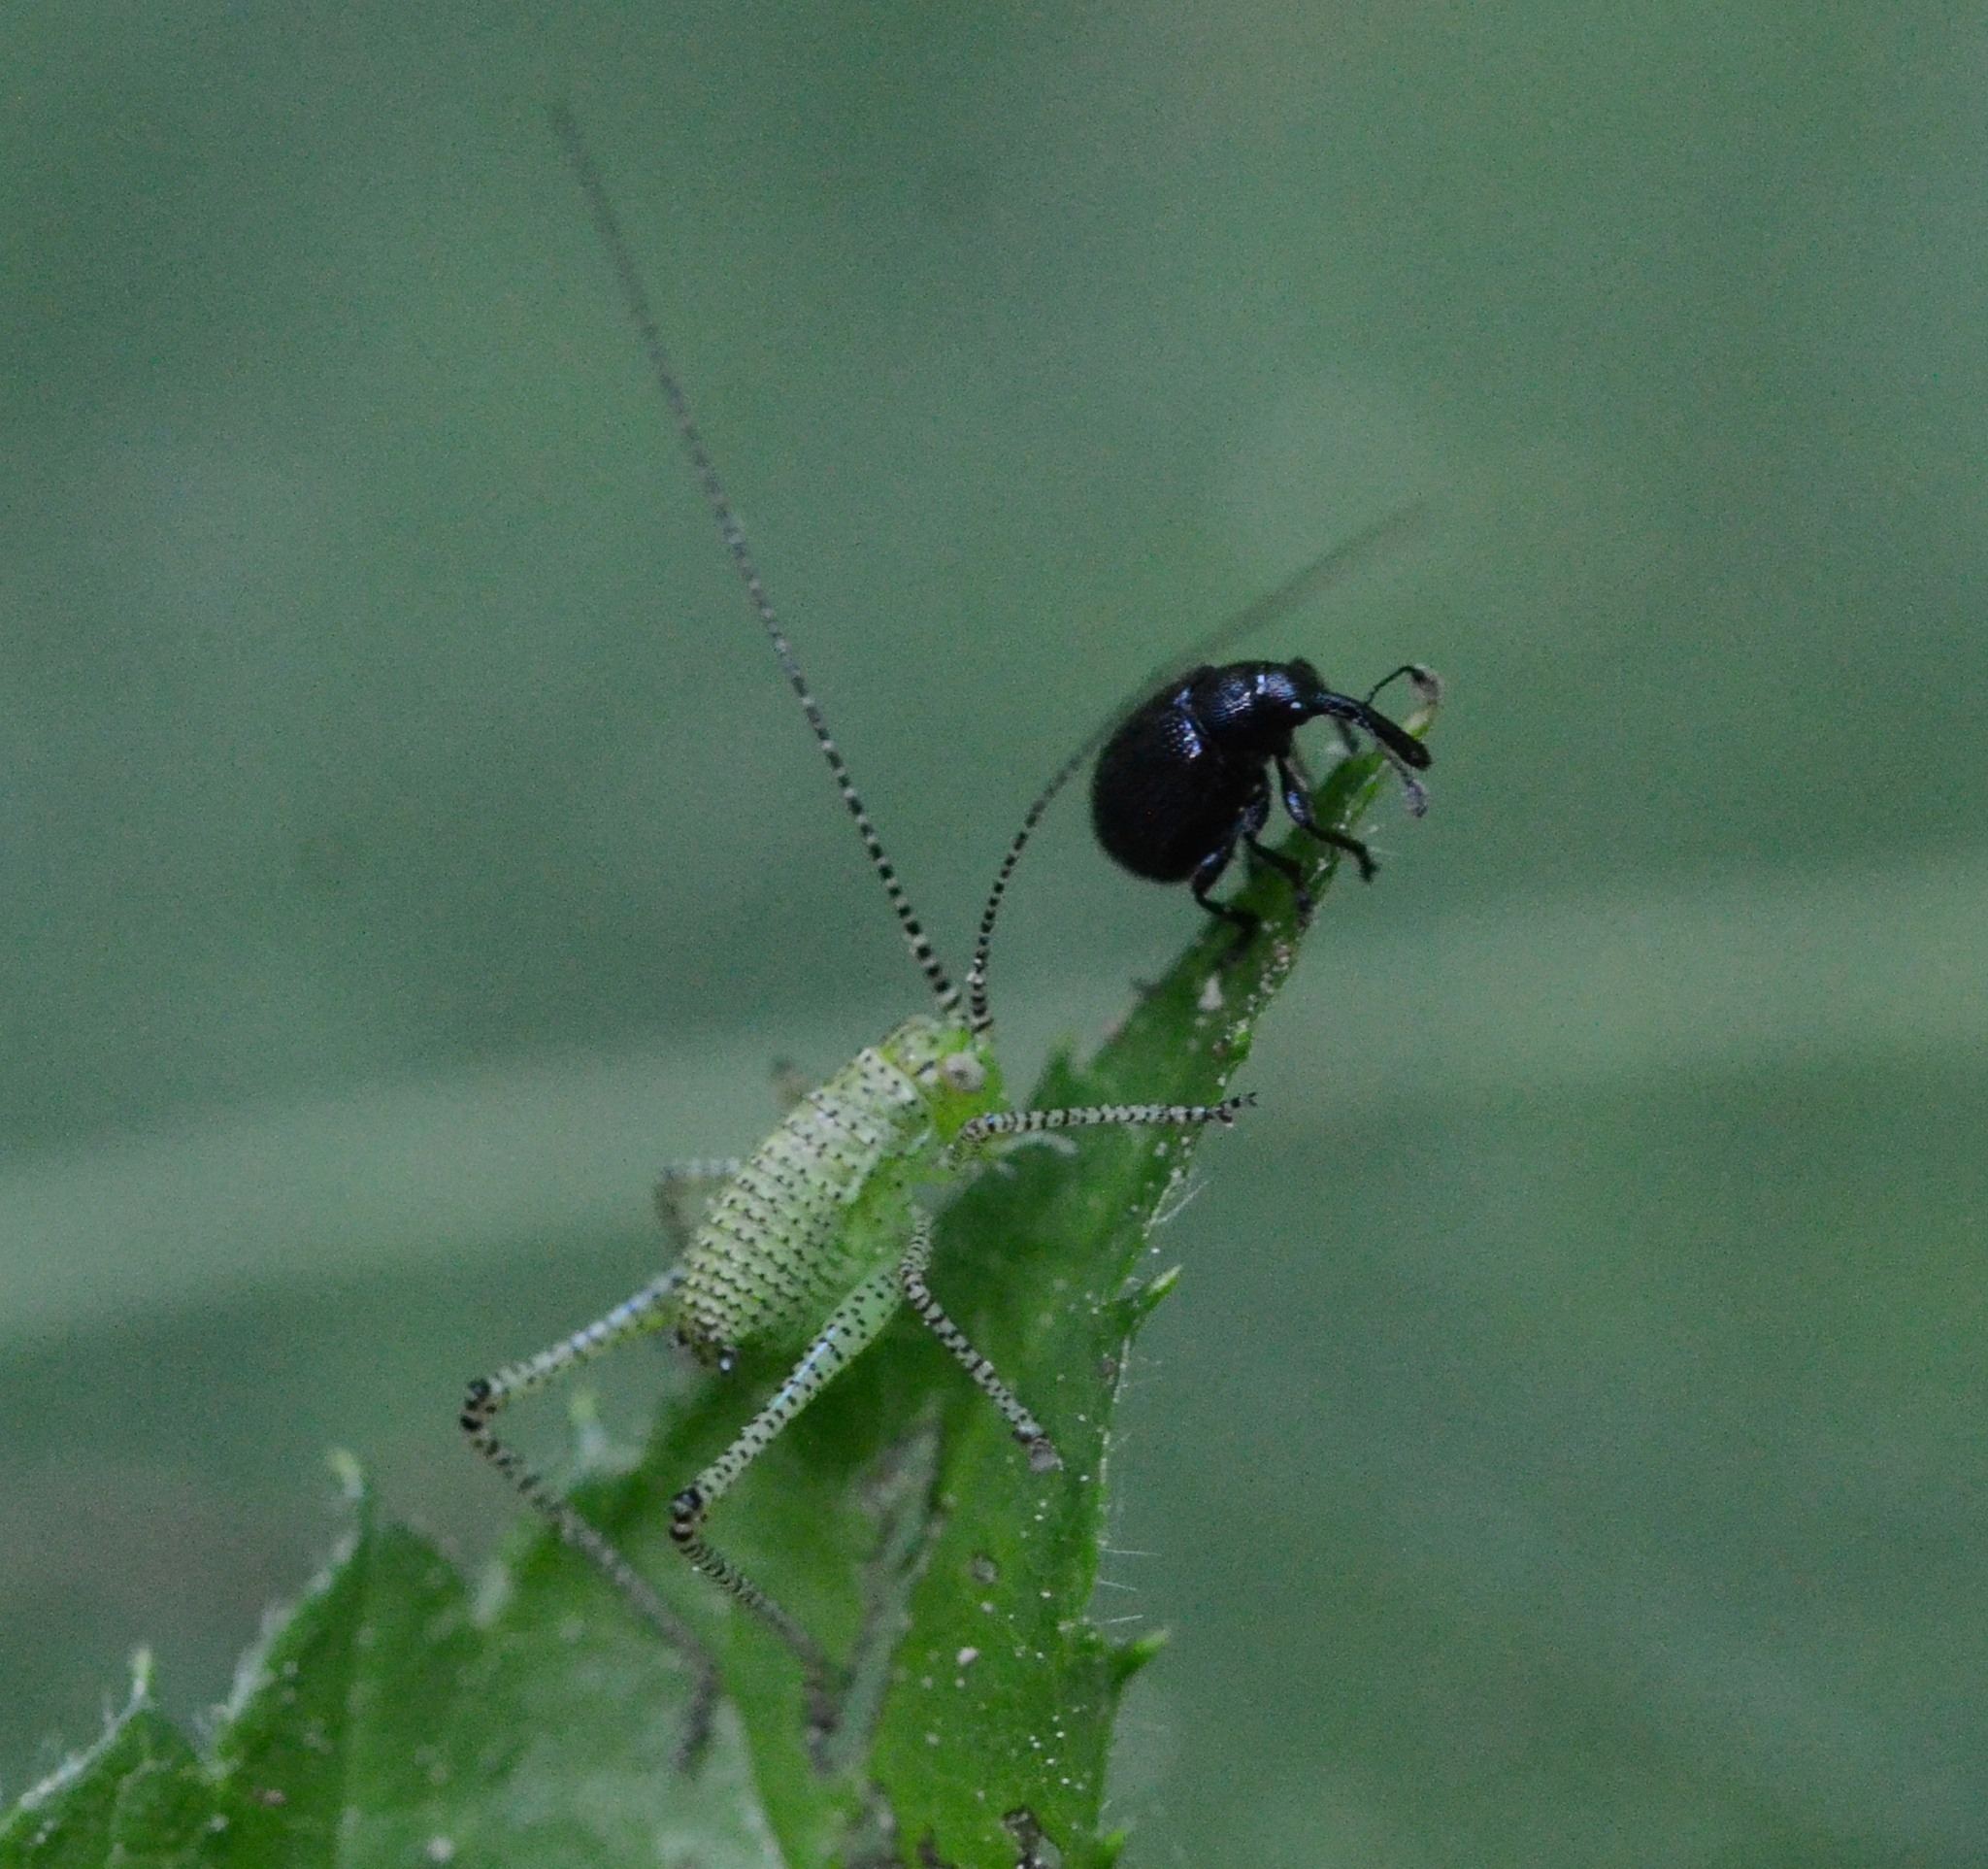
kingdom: Animalia
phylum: Arthropoda
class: Insecta
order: Orthoptera
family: Tettigoniidae
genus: Leptophyes
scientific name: Leptophyes punctatissima
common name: Speckled bush-cricket
